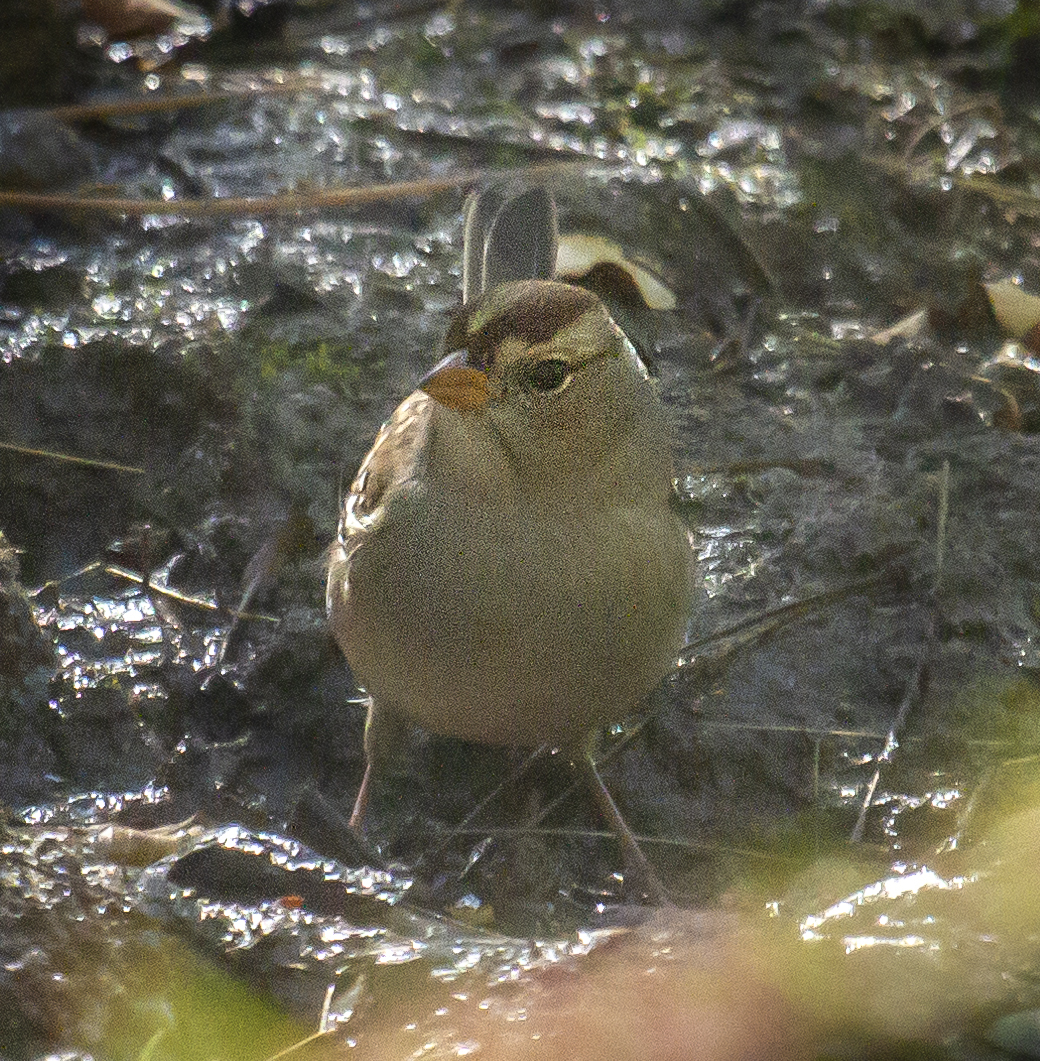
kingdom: Animalia
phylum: Chordata
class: Aves
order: Passeriformes
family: Passerellidae
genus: Zonotrichia
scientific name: Zonotrichia leucophrys
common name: White-crowned sparrow
